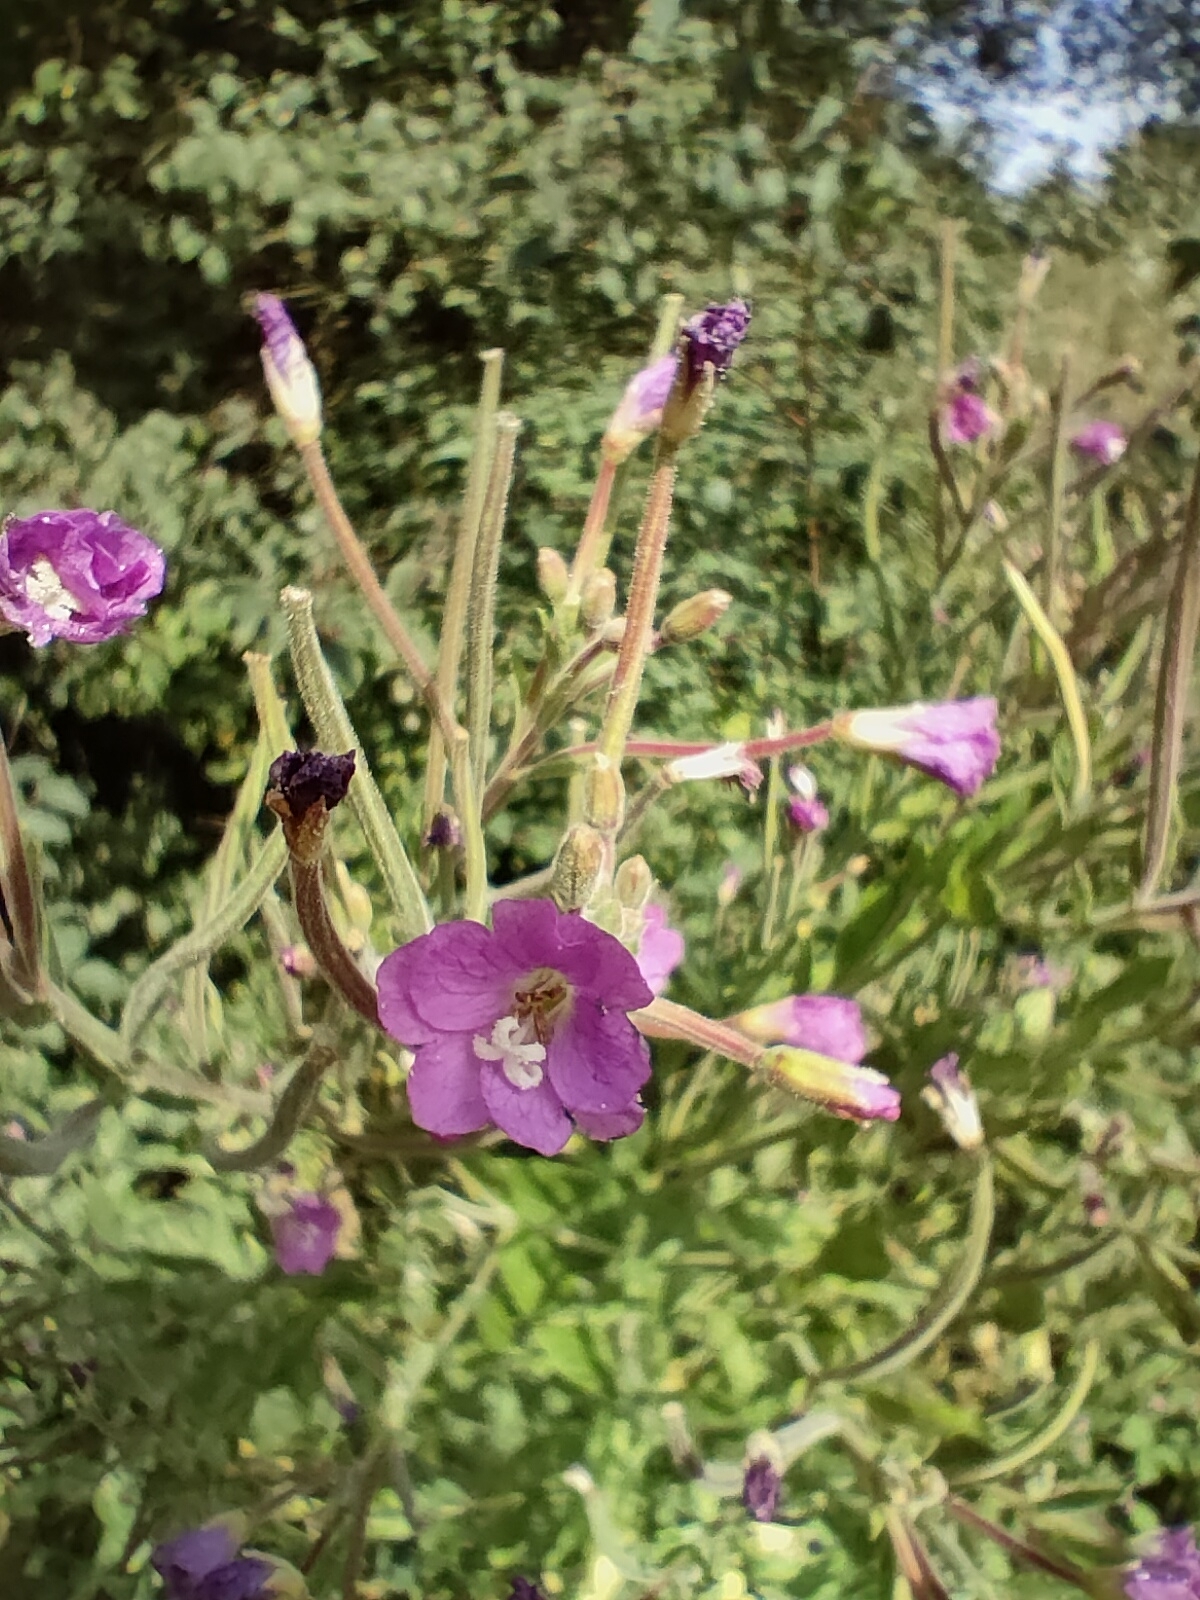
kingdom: Plantae
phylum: Tracheophyta
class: Magnoliopsida
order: Myrtales
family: Onagraceae
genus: Epilobium
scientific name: Epilobium hirsutum
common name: Great willowherb
